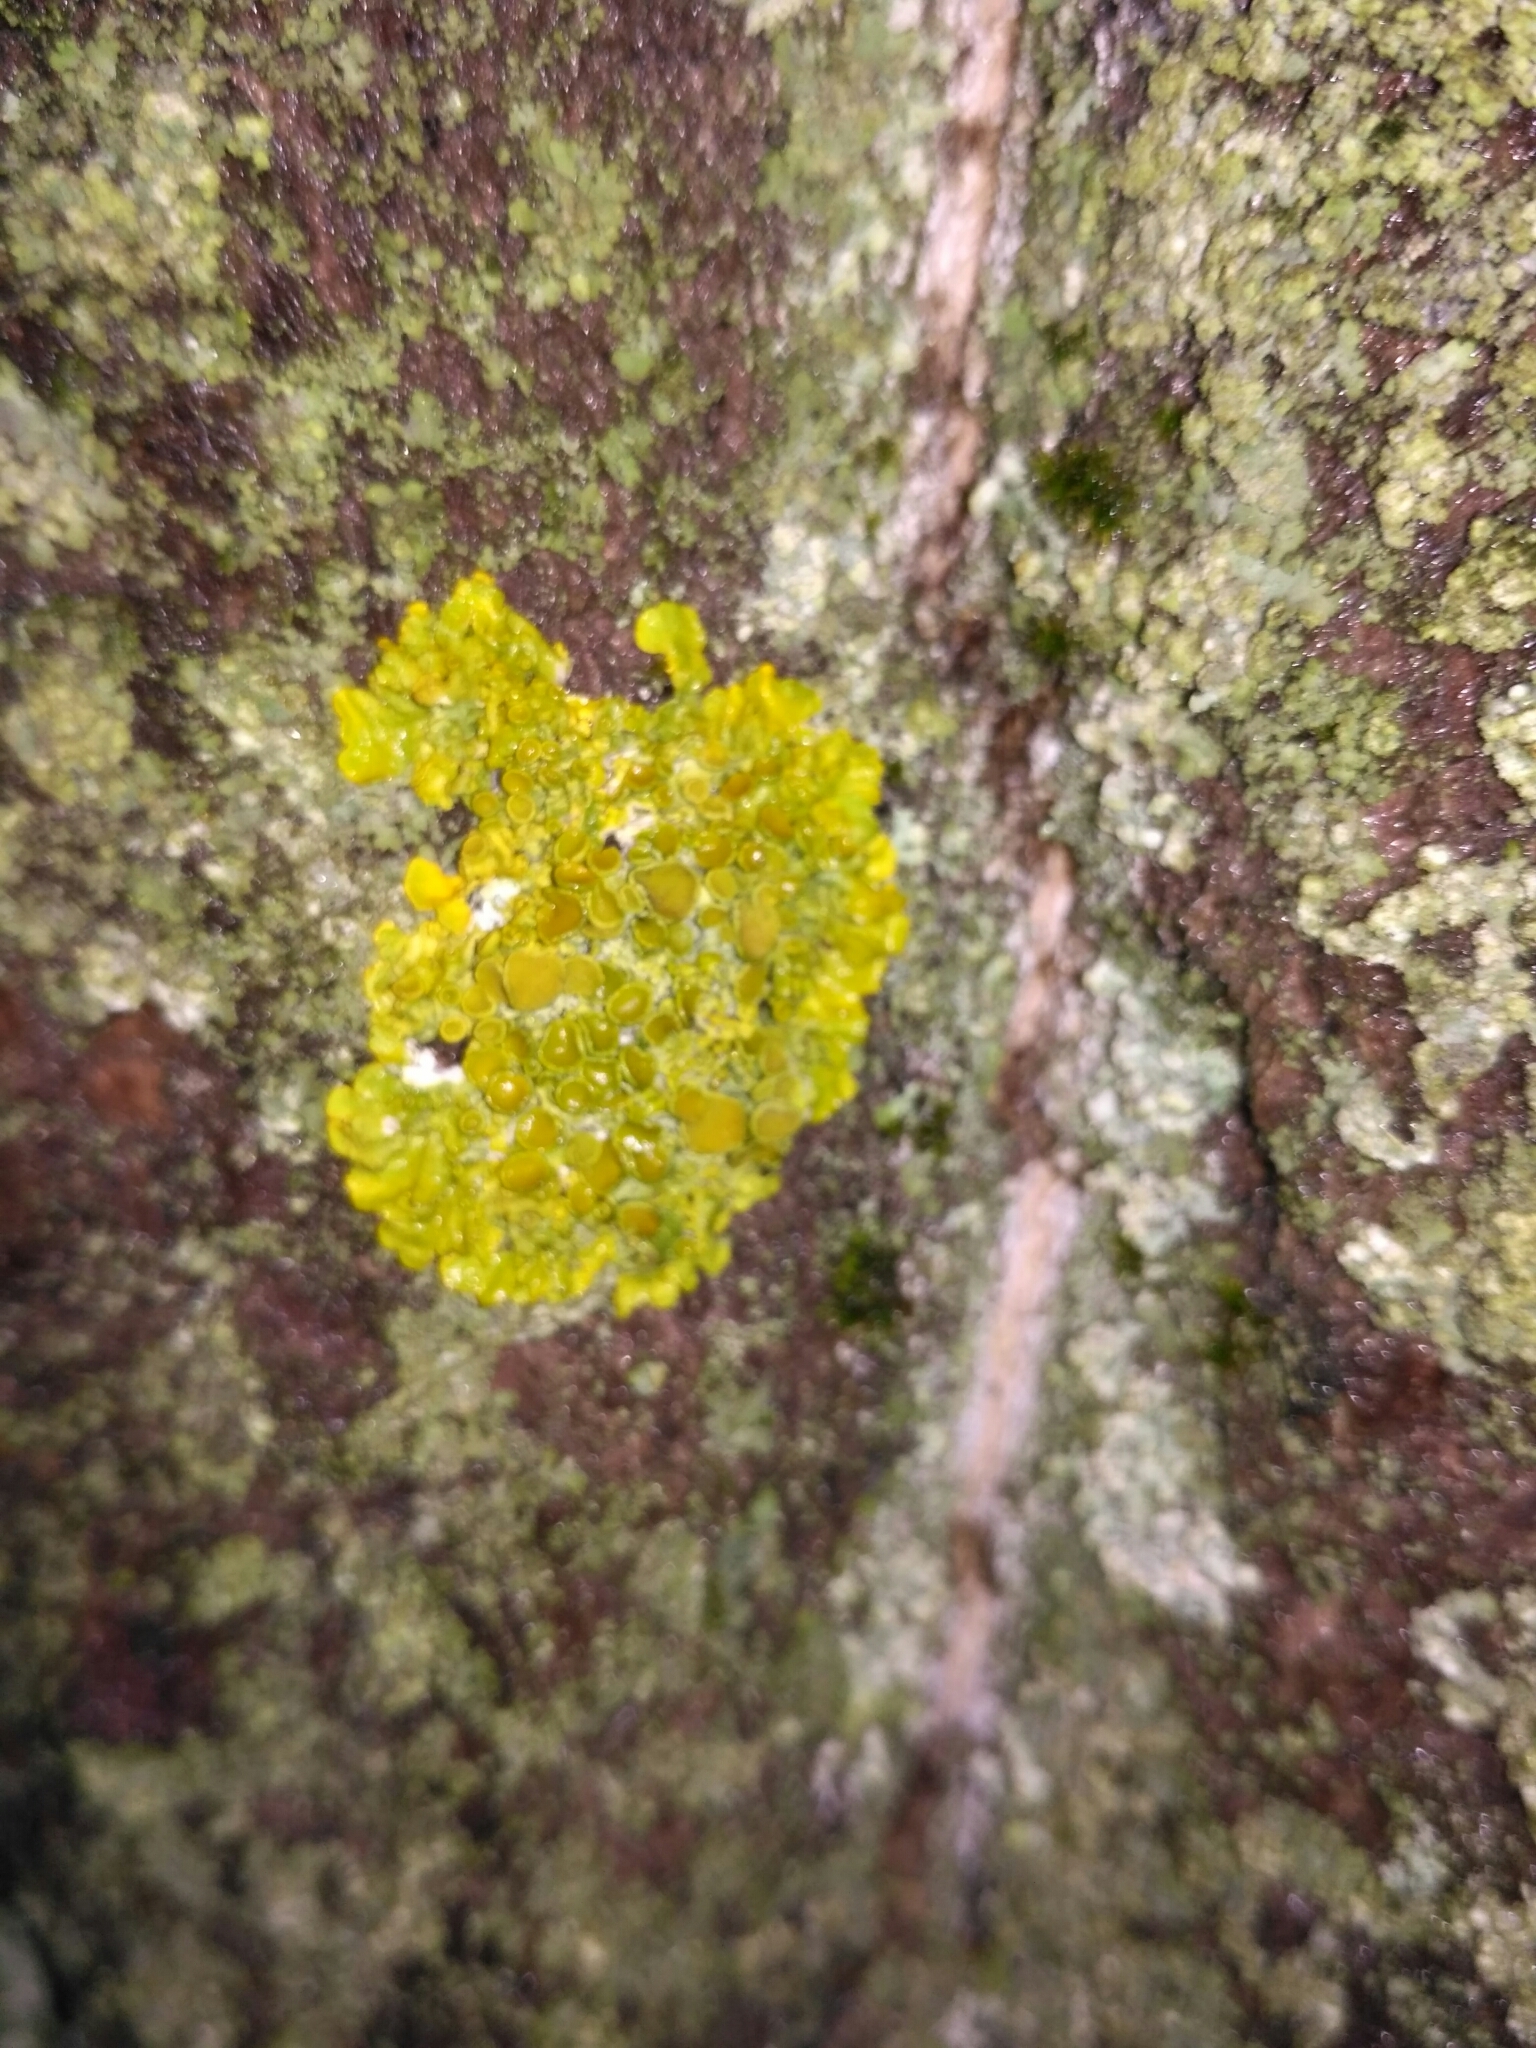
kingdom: Fungi
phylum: Ascomycota
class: Lecanoromycetes
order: Teloschistales
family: Teloschistaceae
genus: Xanthoria
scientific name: Xanthoria parietina
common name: Common orange lichen
